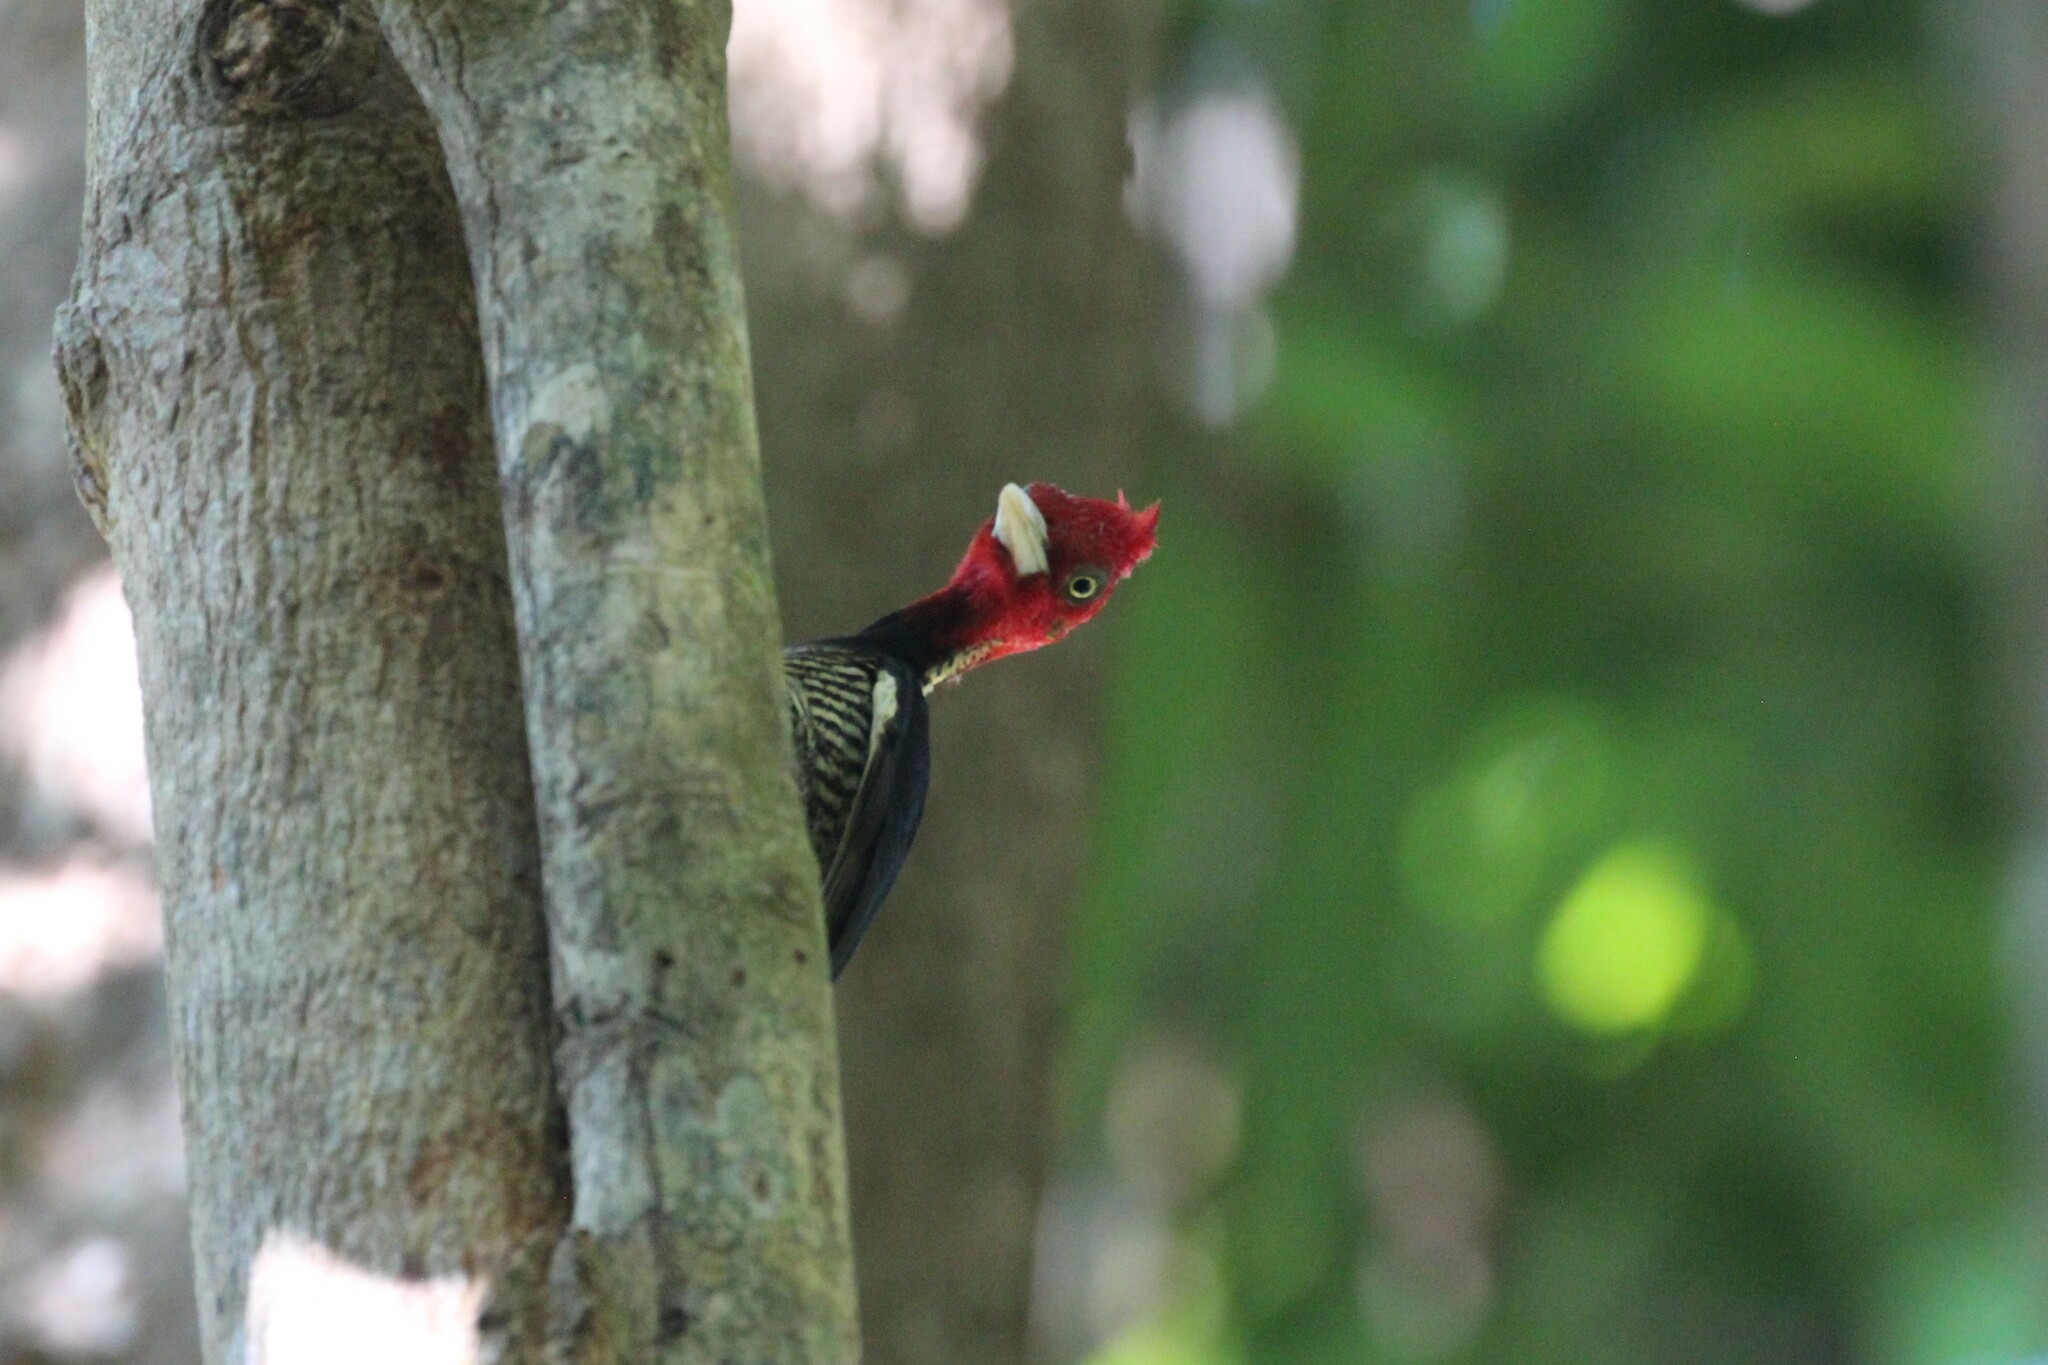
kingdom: Animalia
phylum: Chordata
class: Aves
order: Piciformes
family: Picidae
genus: Campephilus
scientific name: Campephilus guatemalensis
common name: Pale-billed woodpecker
